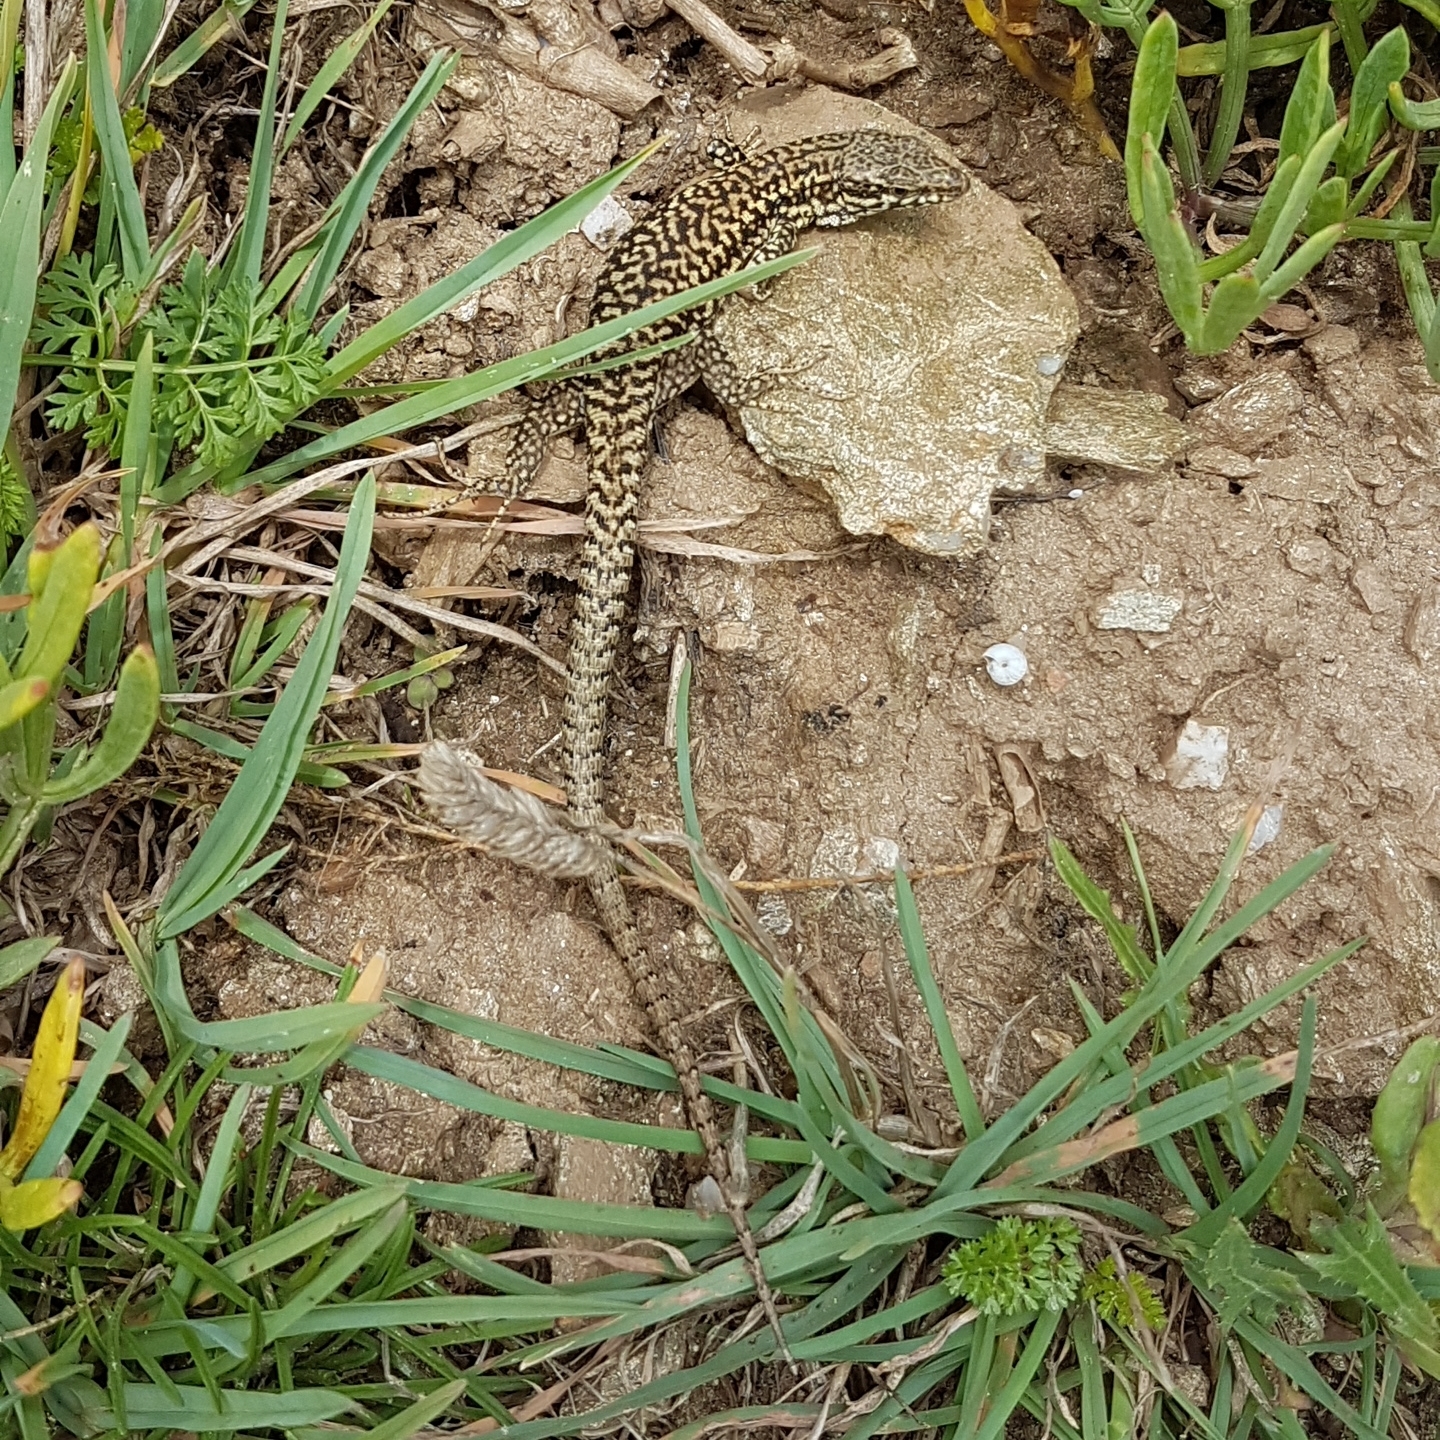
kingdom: Animalia
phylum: Chordata
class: Squamata
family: Lacertidae
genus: Podarcis
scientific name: Podarcis muralis
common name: Common wall lizard
